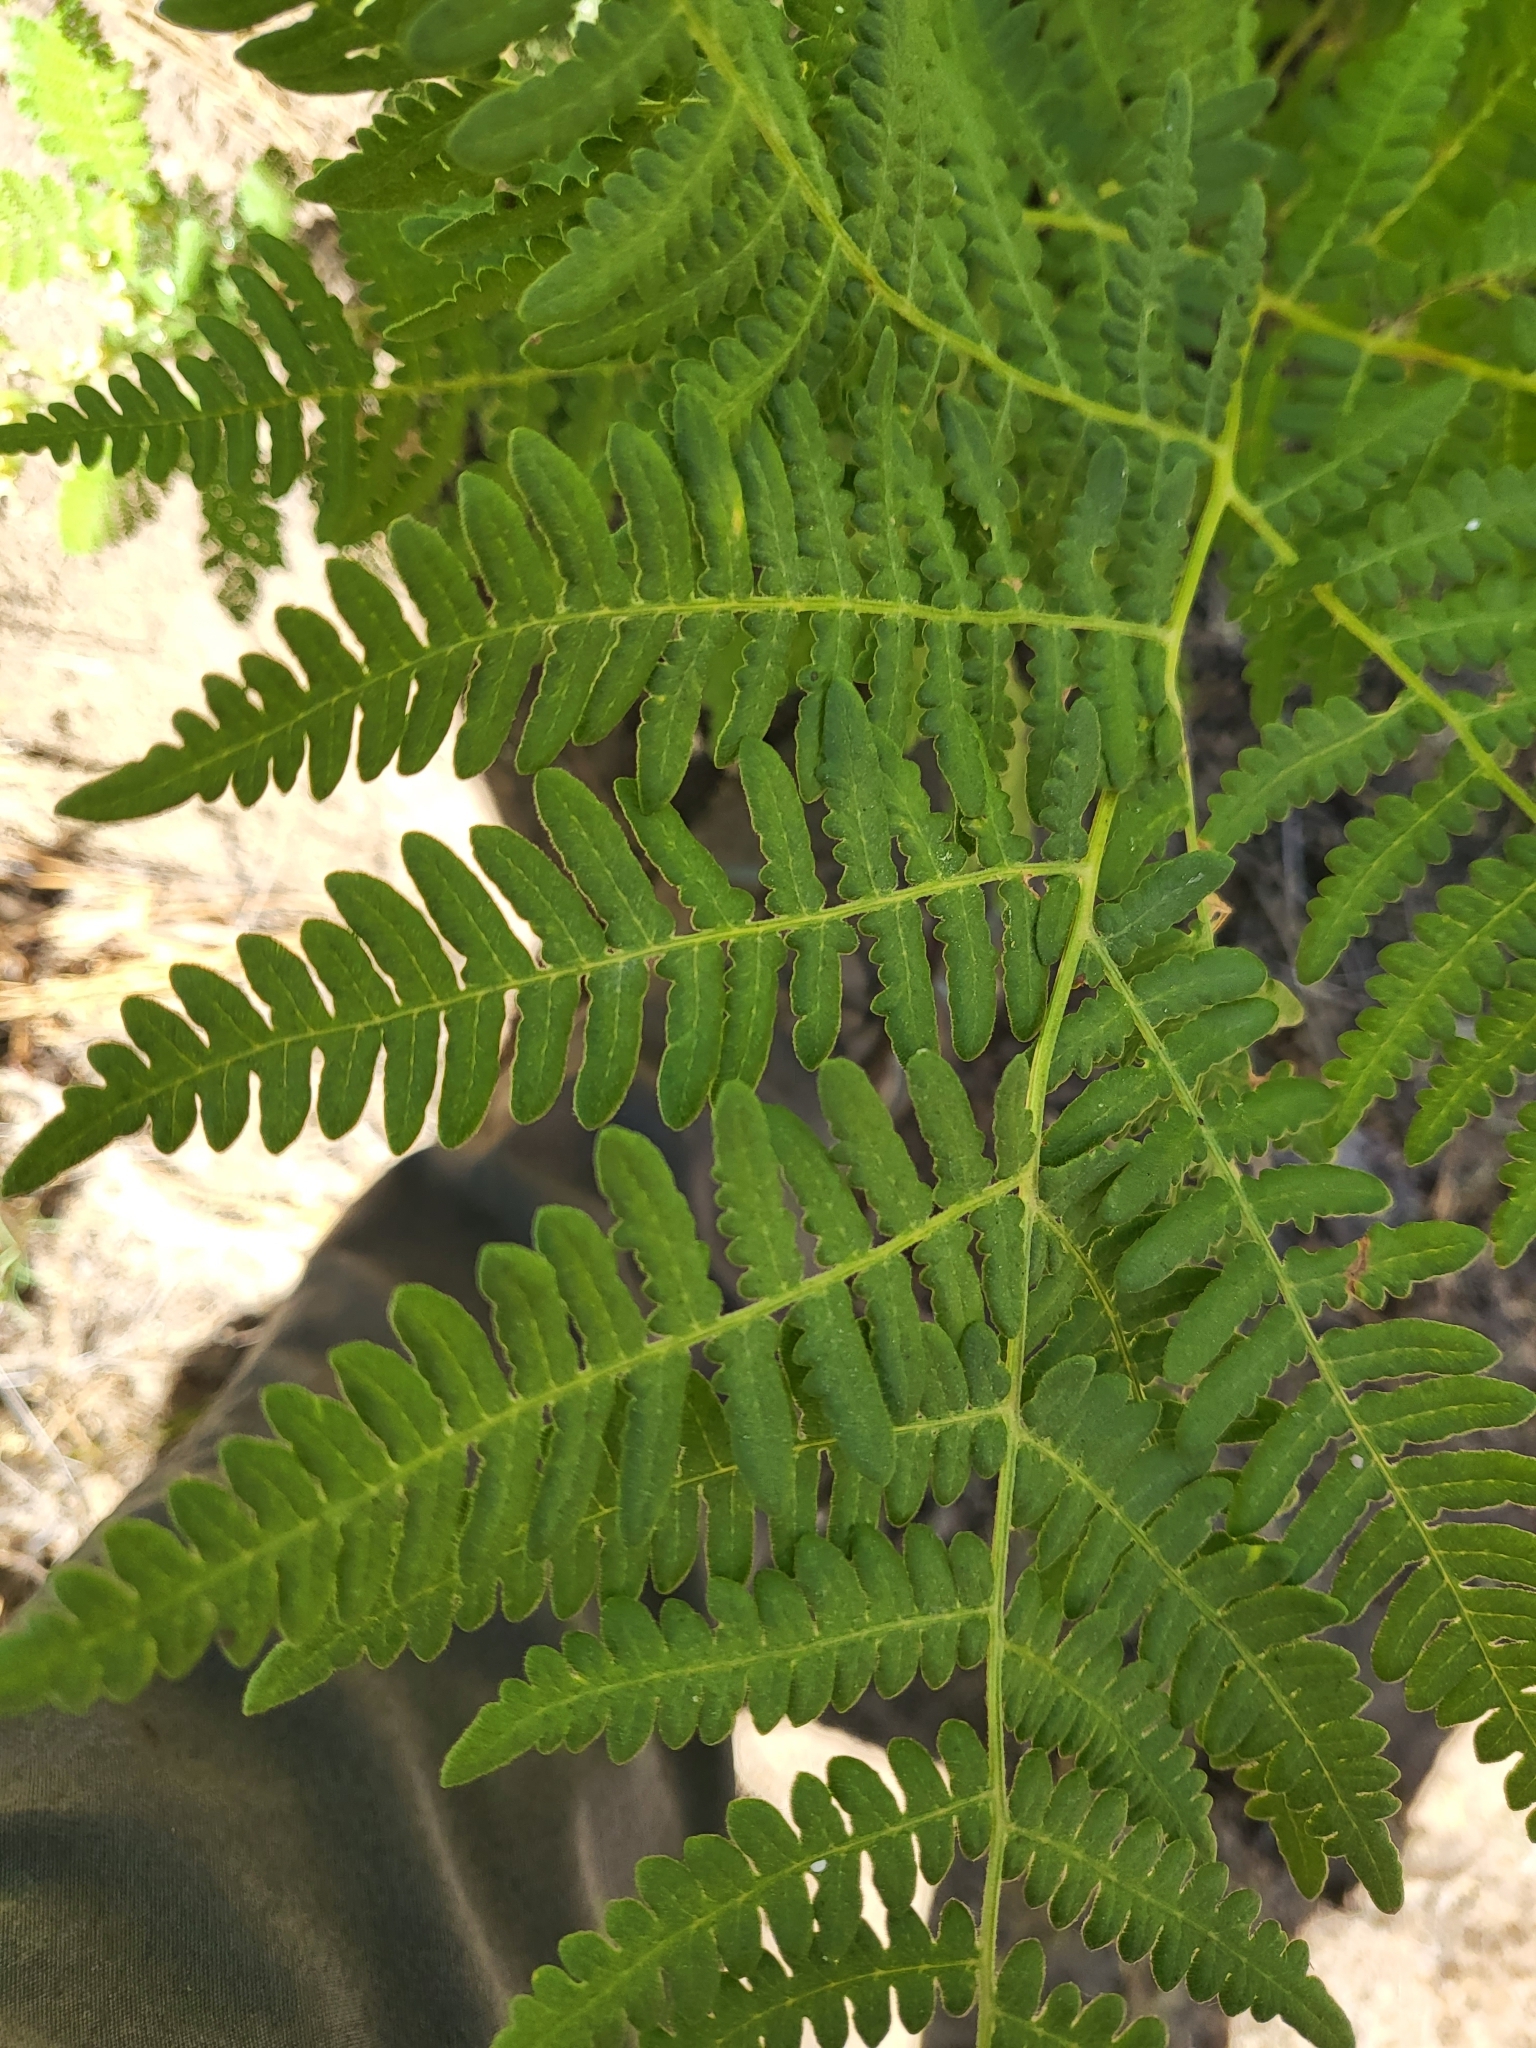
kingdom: Plantae
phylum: Tracheophyta
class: Polypodiopsida
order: Polypodiales
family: Dennstaedtiaceae
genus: Pteridium
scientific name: Pteridium aquilinum
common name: Bracken
